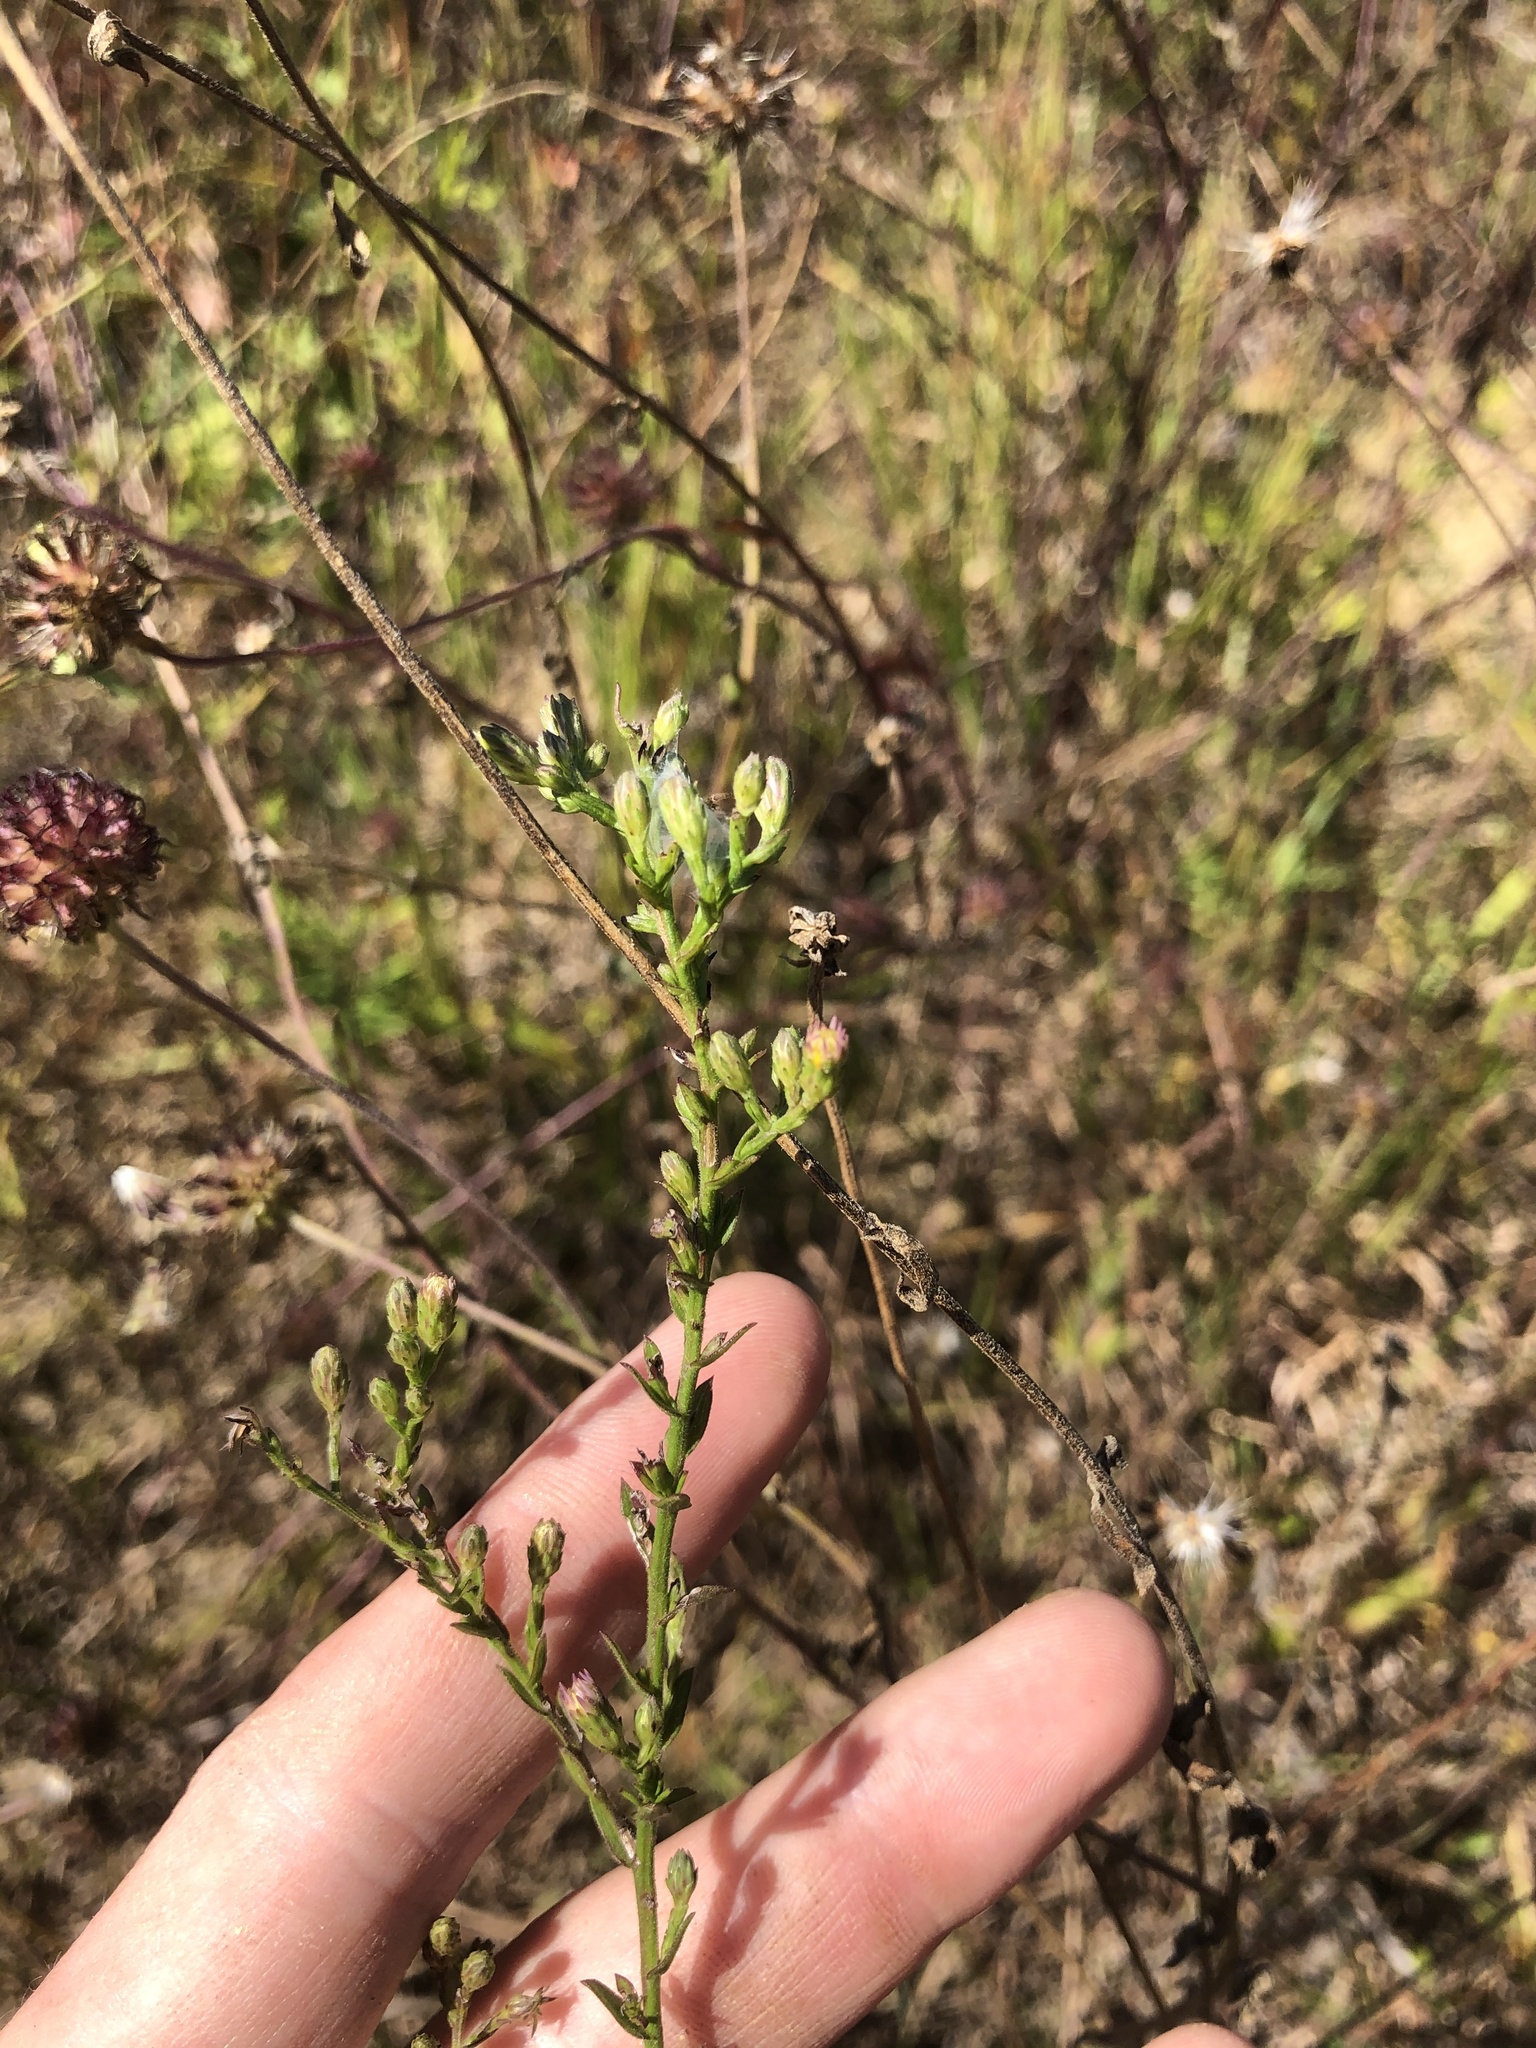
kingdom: Plantae
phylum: Tracheophyta
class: Magnoliopsida
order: Asterales
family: Asteraceae
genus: Solidago
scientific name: Solidago rigida
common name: Rigid goldenrod
